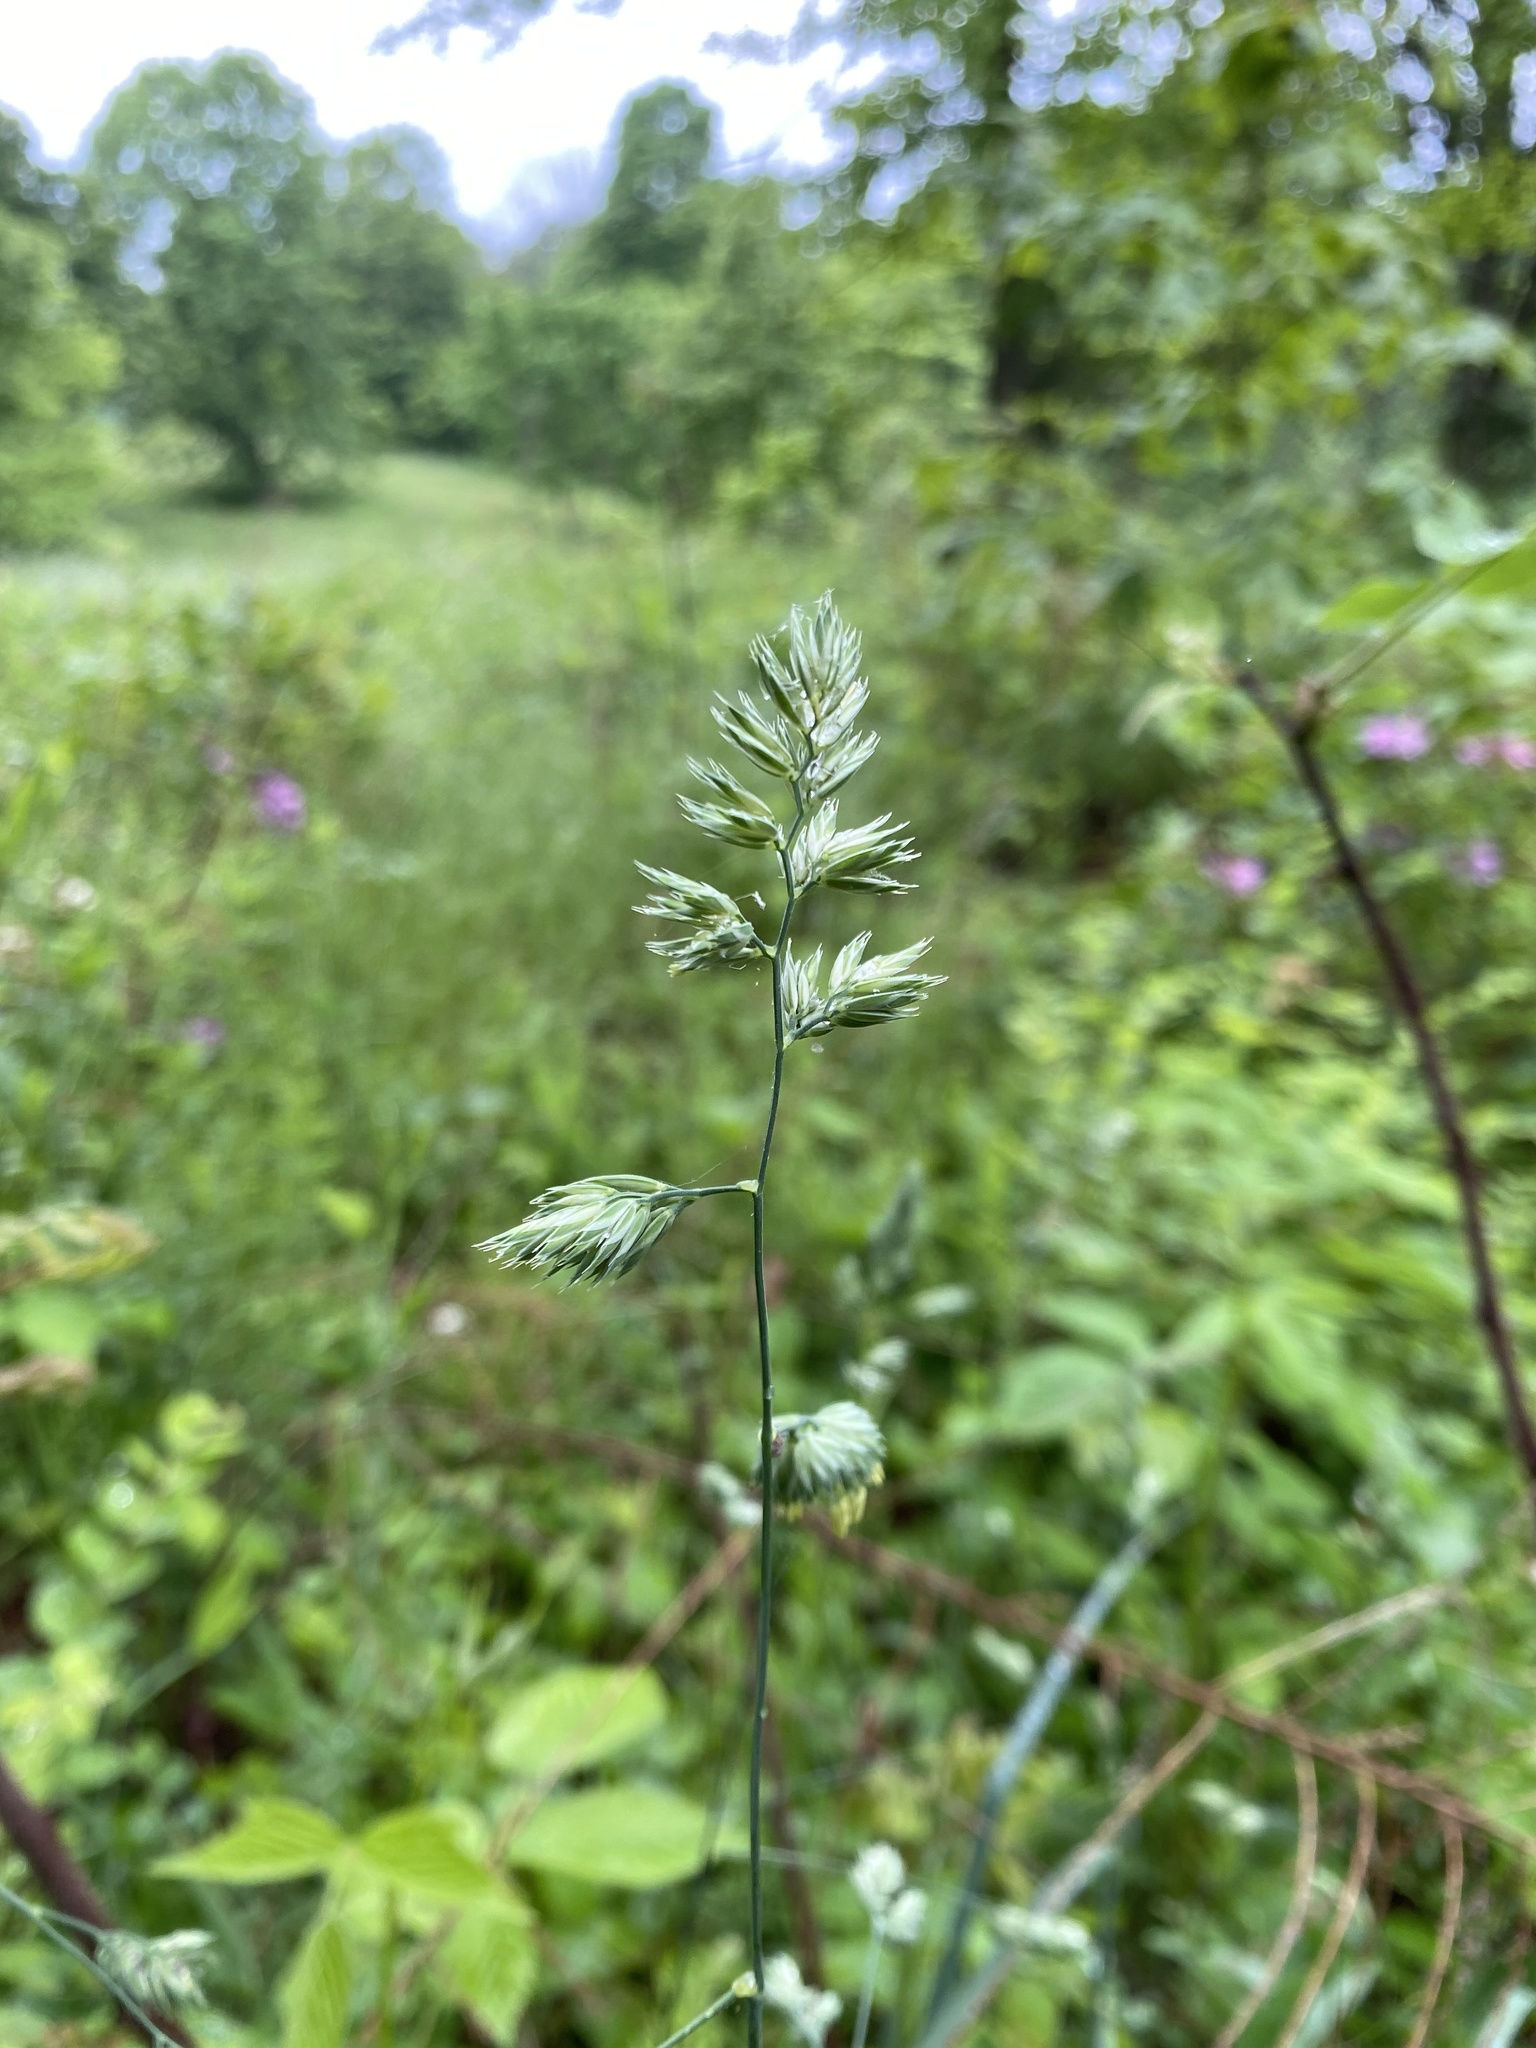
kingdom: Plantae
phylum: Tracheophyta
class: Liliopsida
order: Poales
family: Poaceae
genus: Dactylis
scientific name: Dactylis glomerata
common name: Orchardgrass
